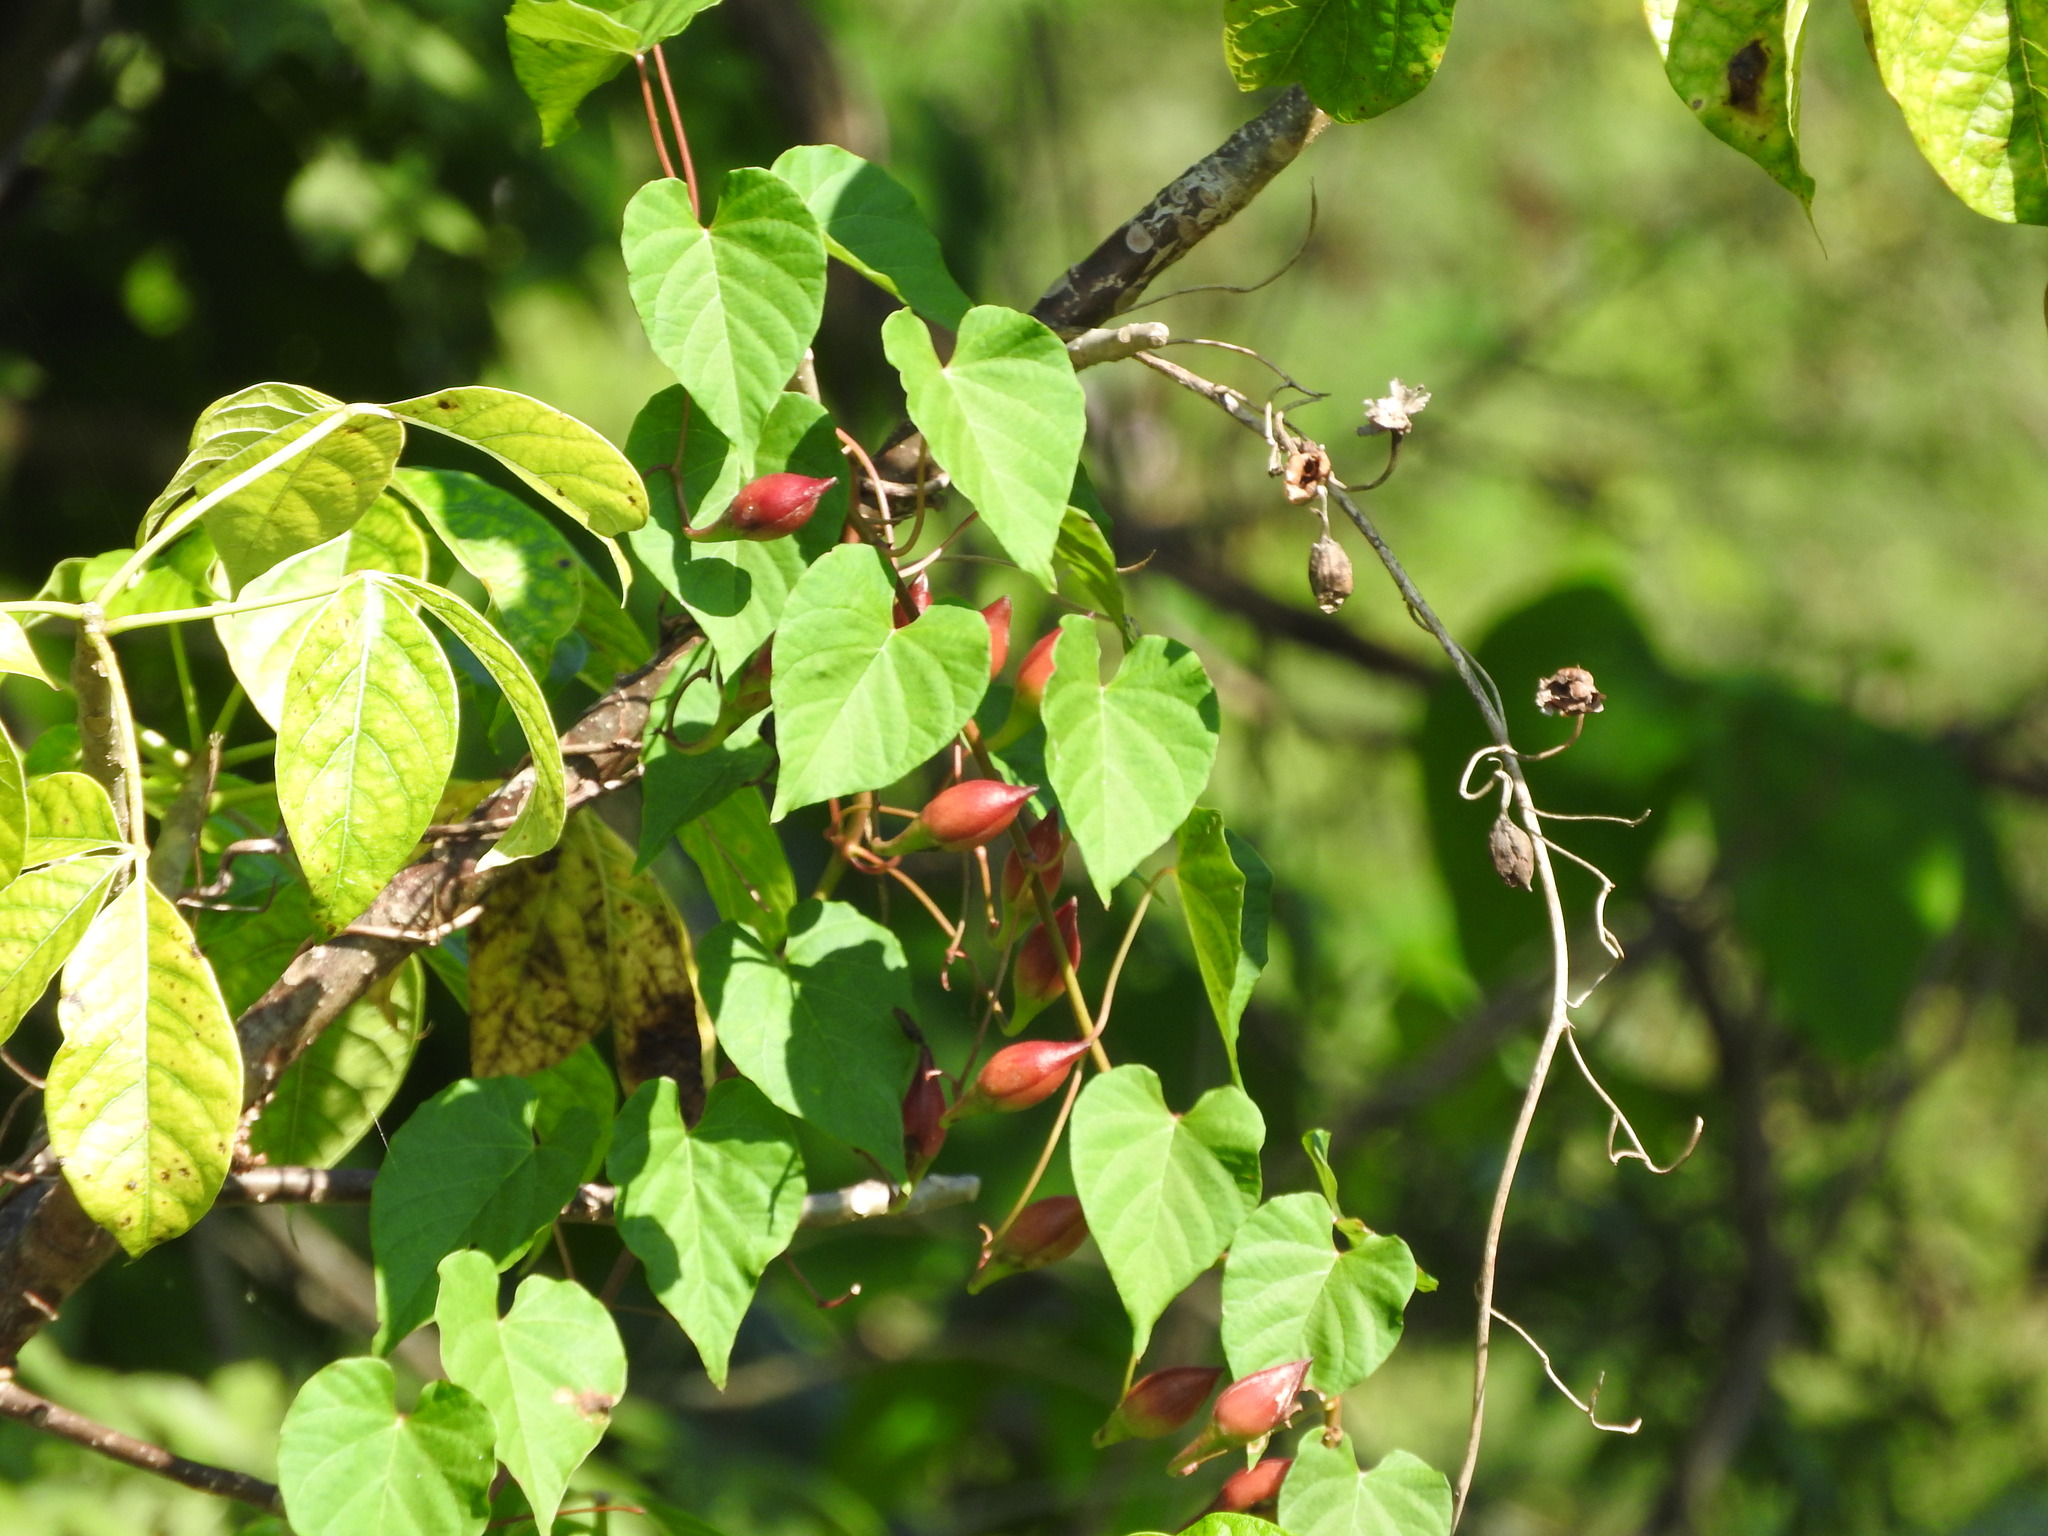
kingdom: Plantae
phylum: Tracheophyta
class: Magnoliopsida
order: Solanales
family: Convolvulaceae
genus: Operculina
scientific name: Operculina pteripes
